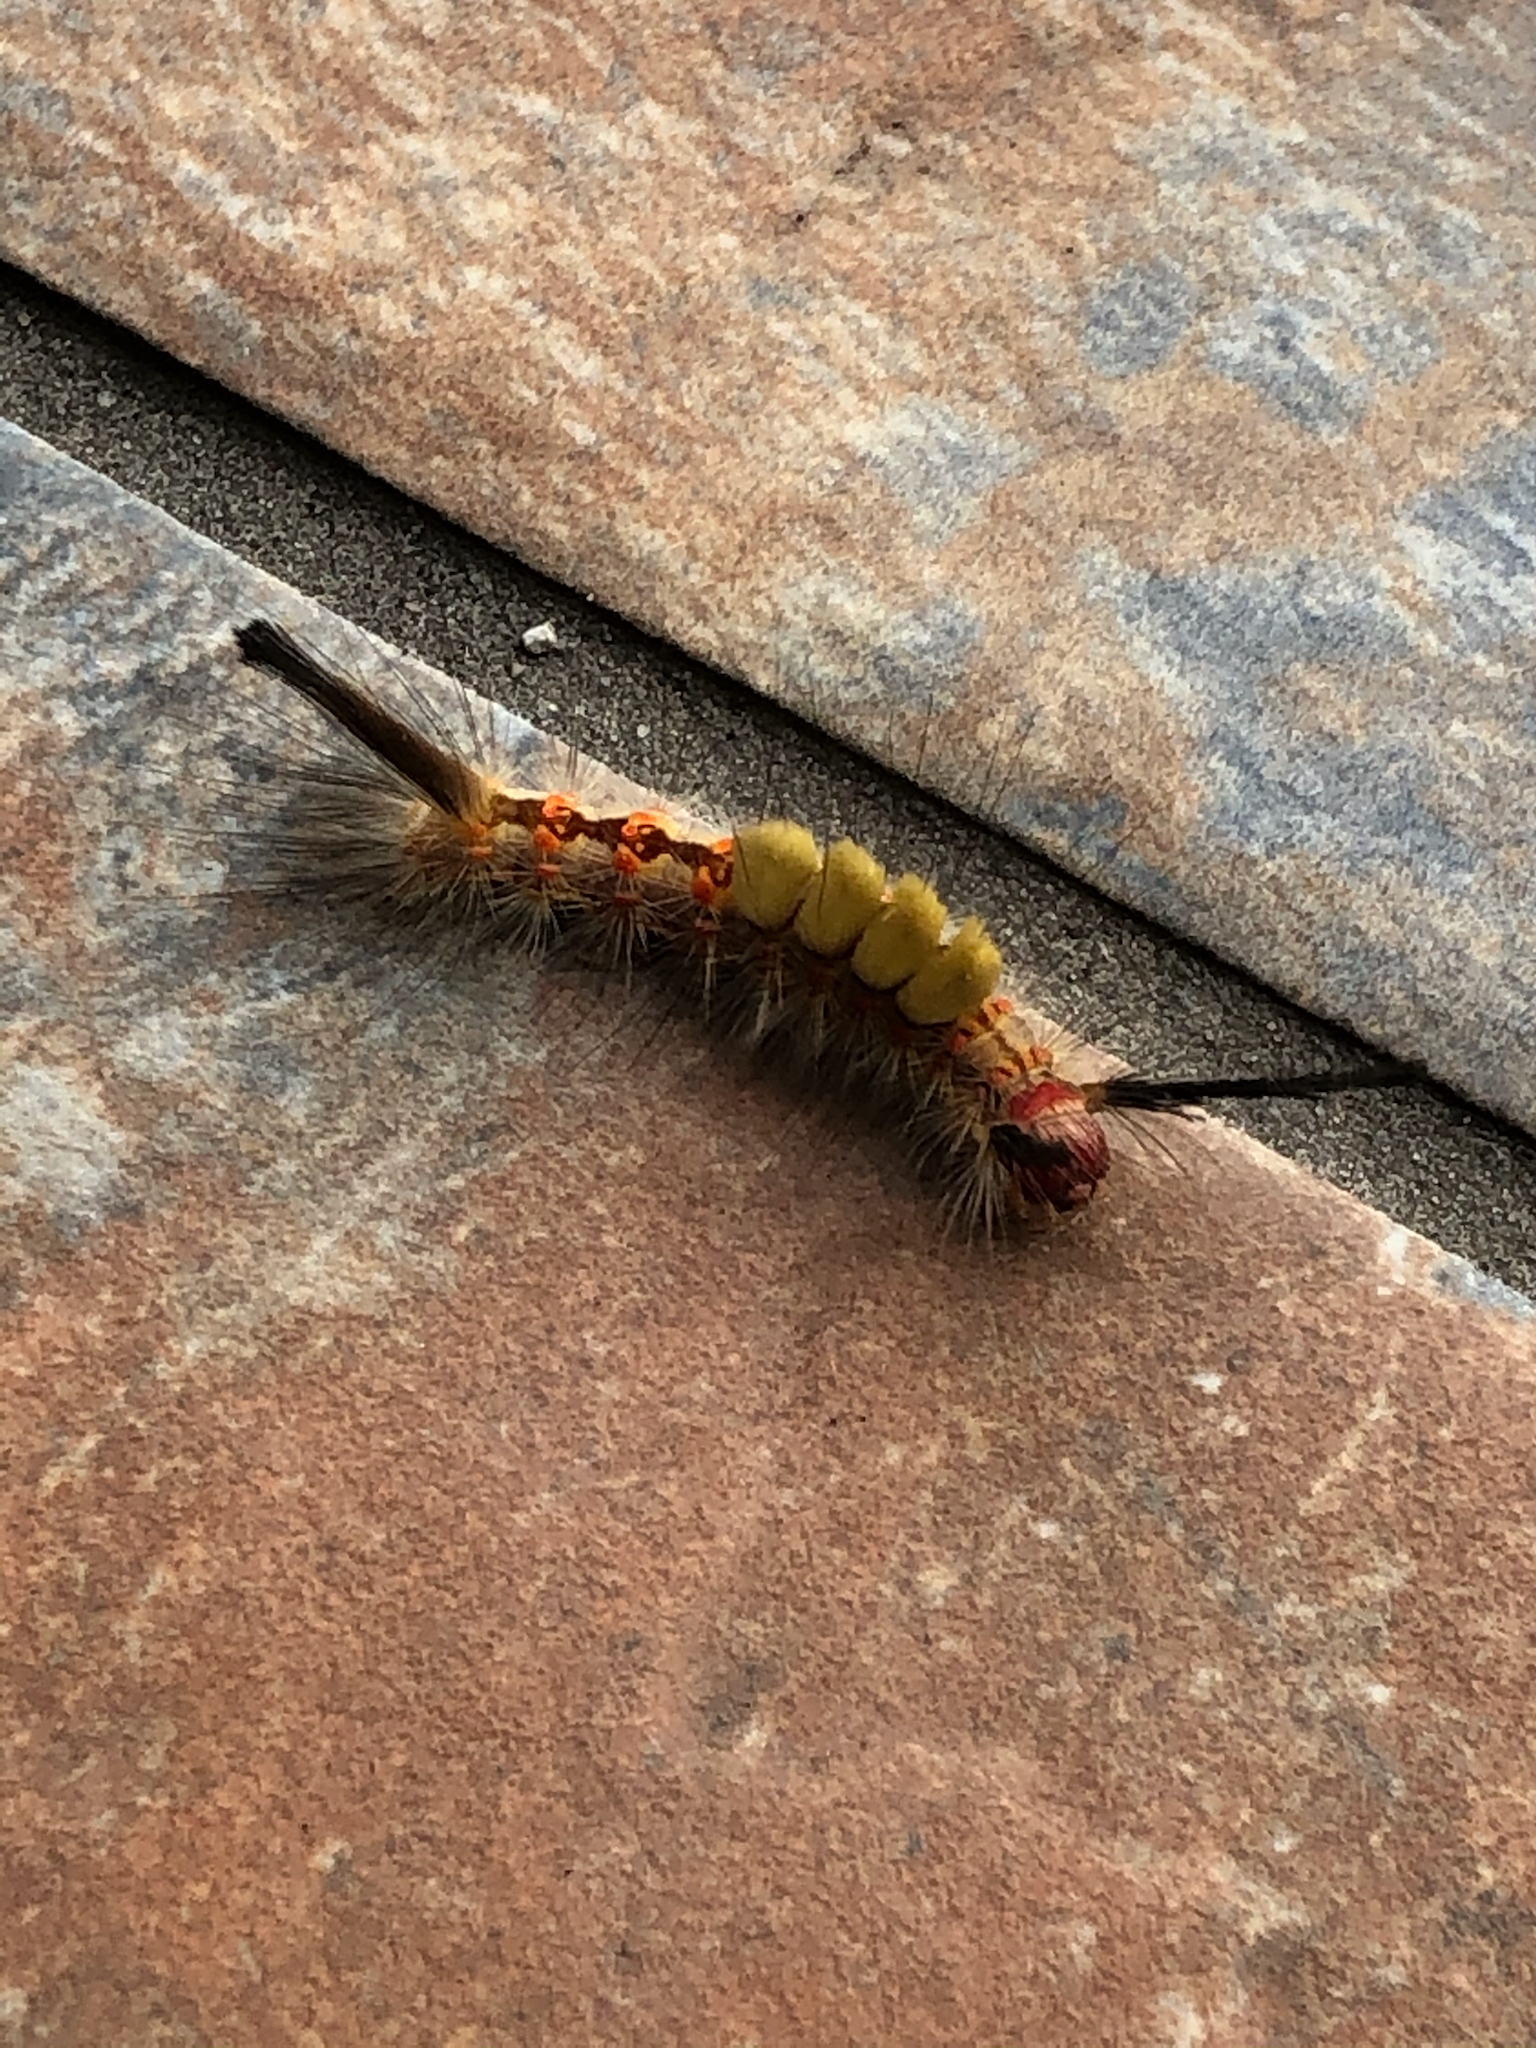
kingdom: Animalia
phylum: Arthropoda
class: Insecta
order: Lepidoptera
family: Erebidae
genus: Orgyia
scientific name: Orgyia detrita
